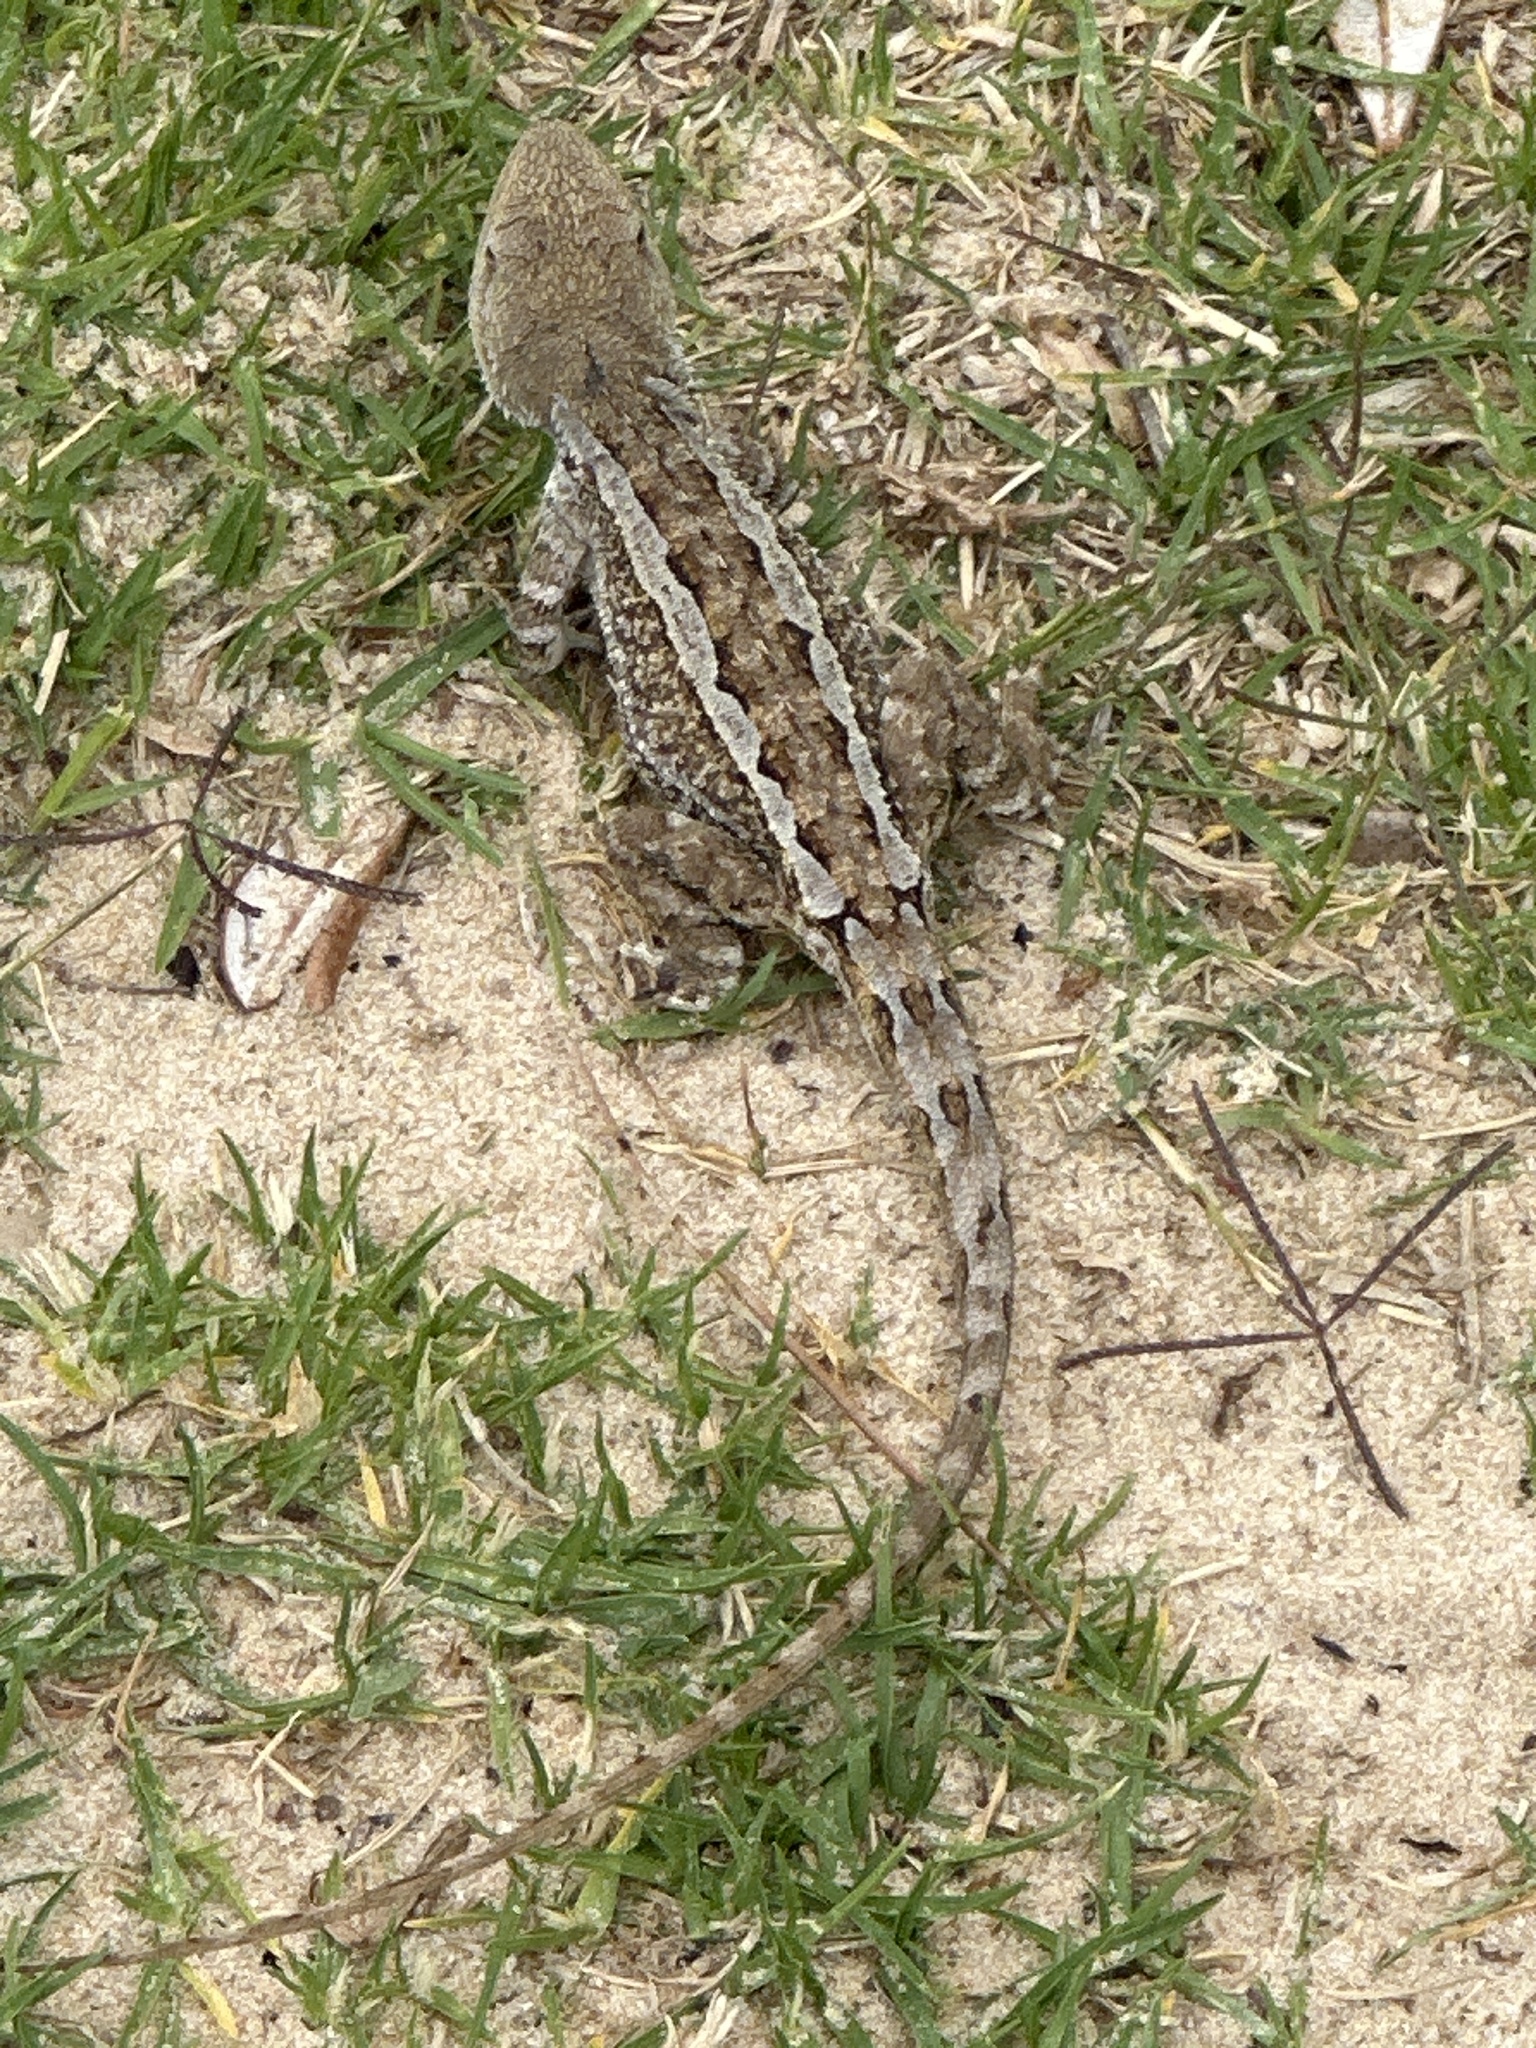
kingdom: Animalia
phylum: Chordata
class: Squamata
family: Agamidae
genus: Amphibolurus
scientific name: Amphibolurus muricatus
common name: Jacky lizard
